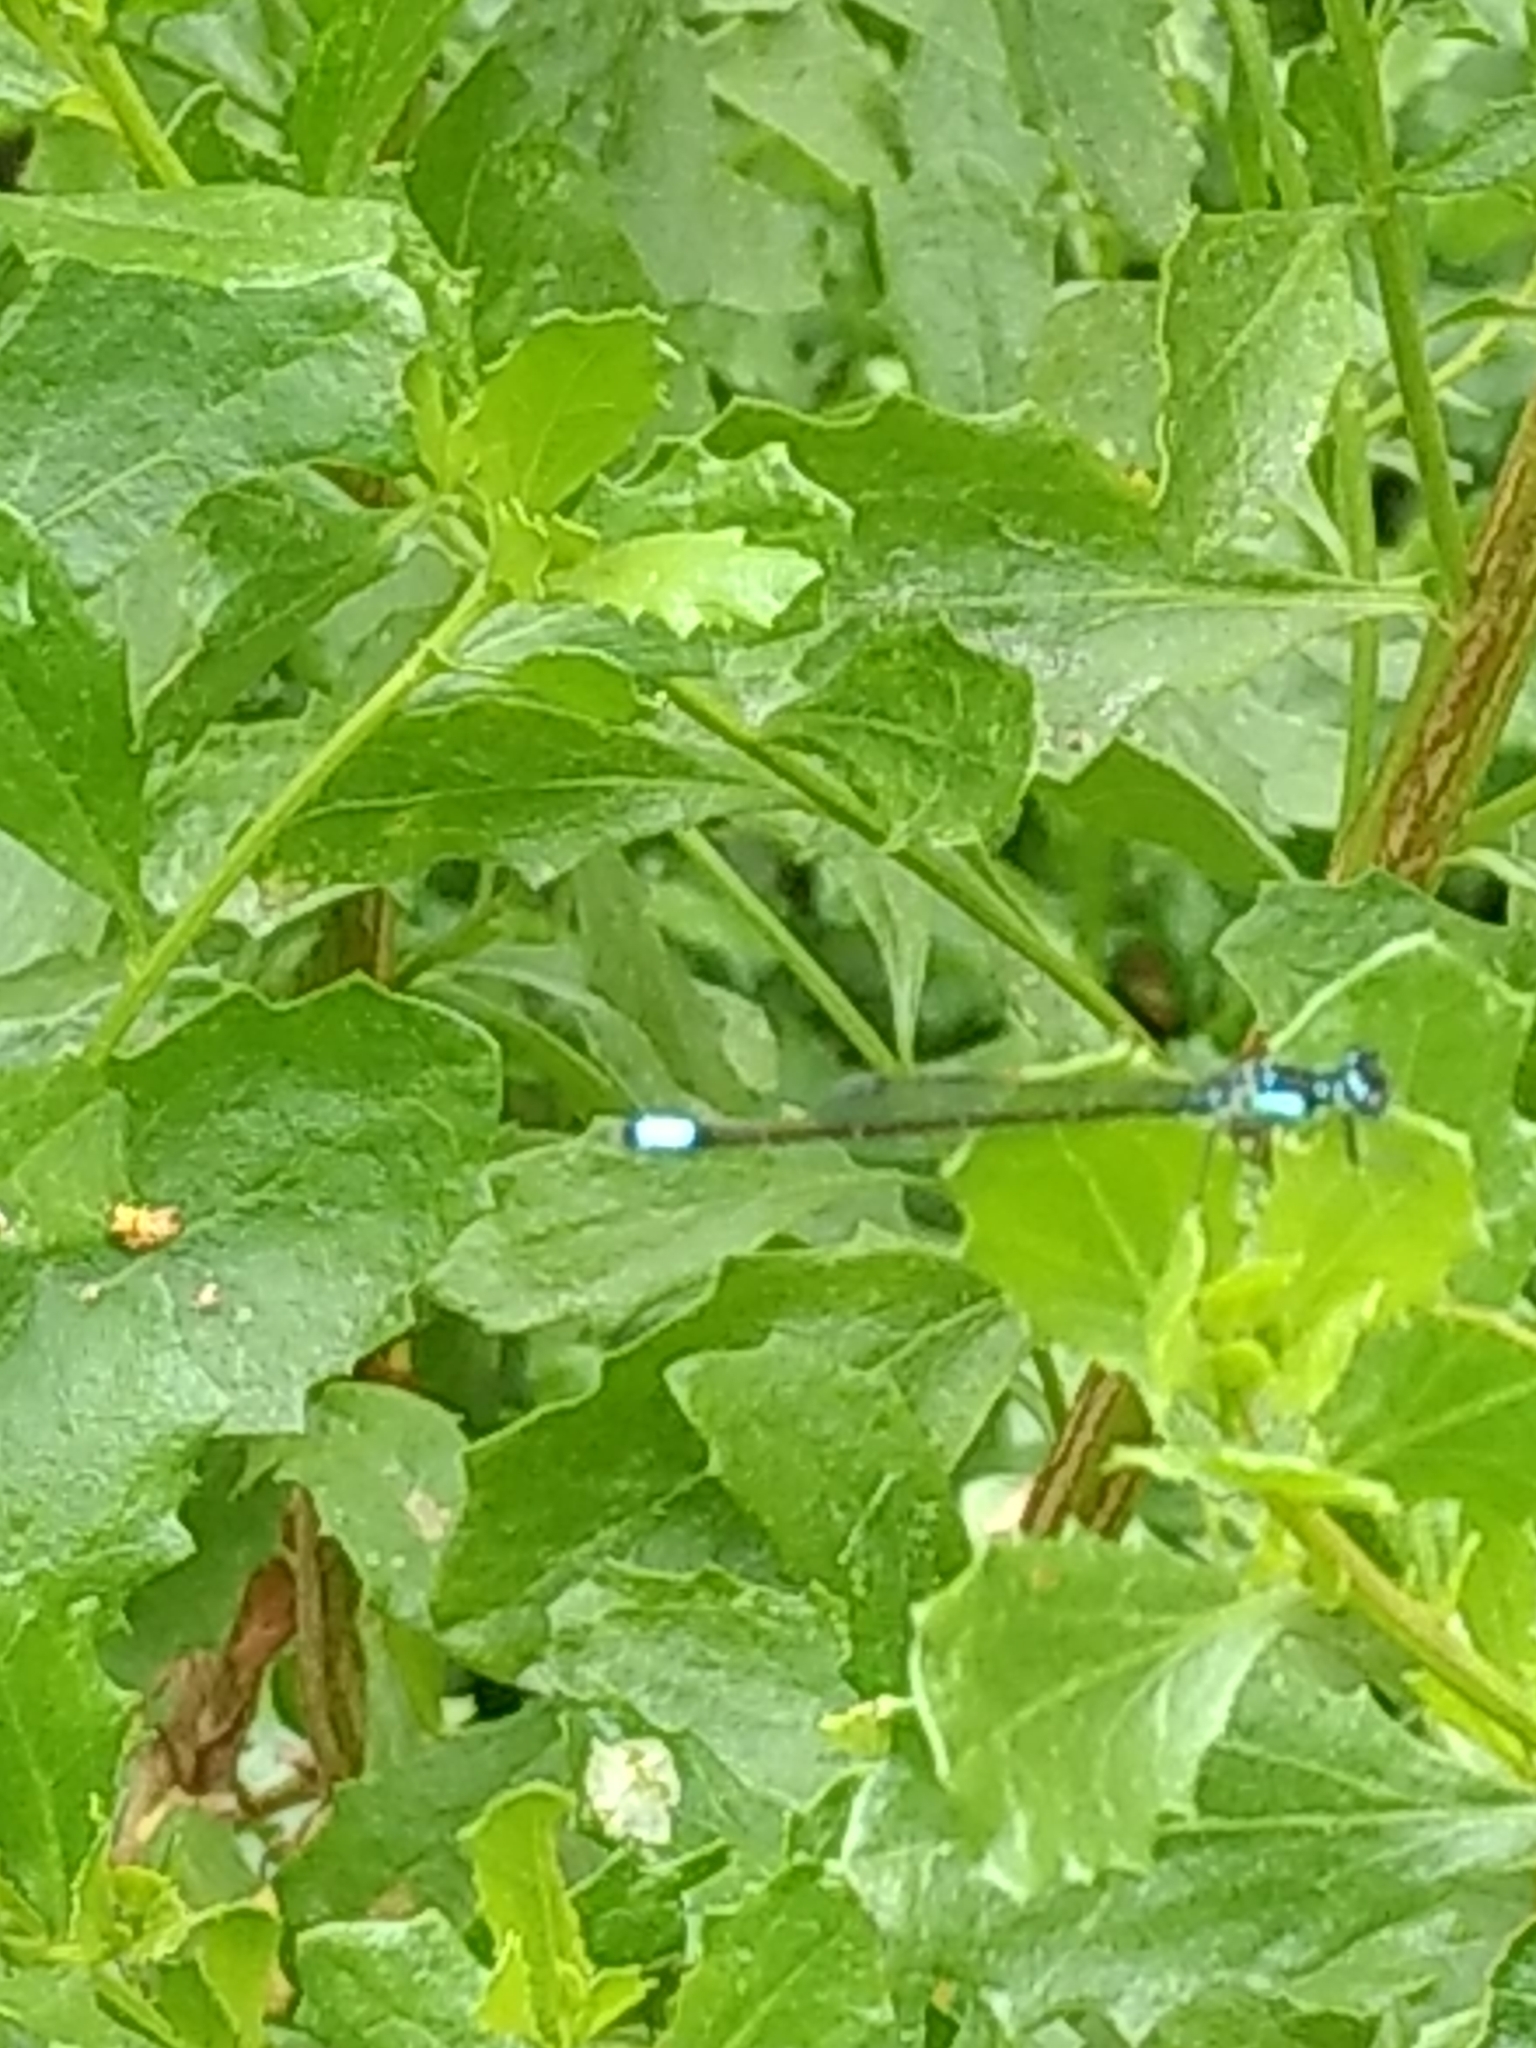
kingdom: Animalia
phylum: Arthropoda
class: Insecta
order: Odonata
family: Coenagrionidae
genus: Ischnura
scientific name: Ischnura cervula
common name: Pacific forktail
